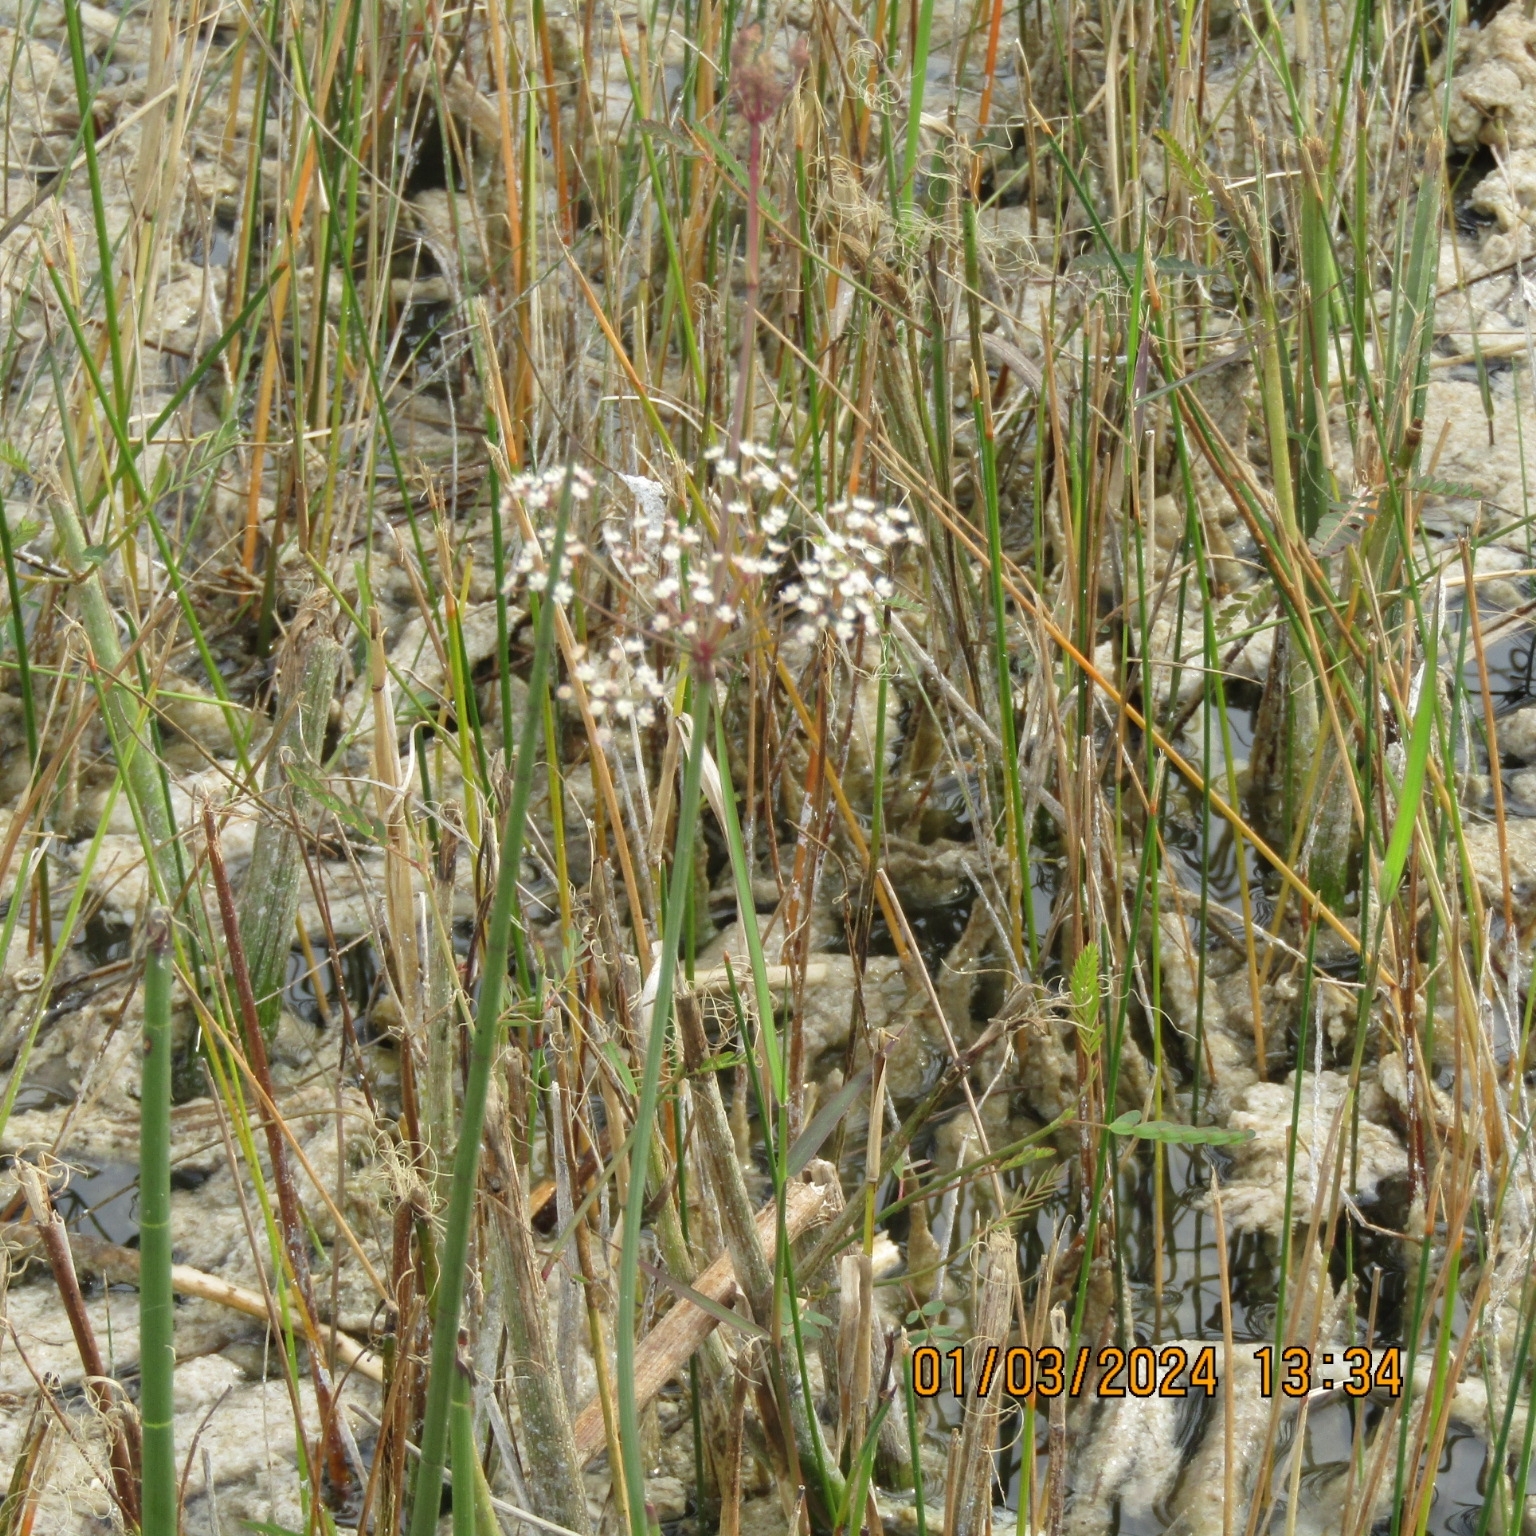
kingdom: Plantae
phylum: Tracheophyta
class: Magnoliopsida
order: Apiales
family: Apiaceae
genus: Tiedemannia
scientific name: Tiedemannia filiformis
